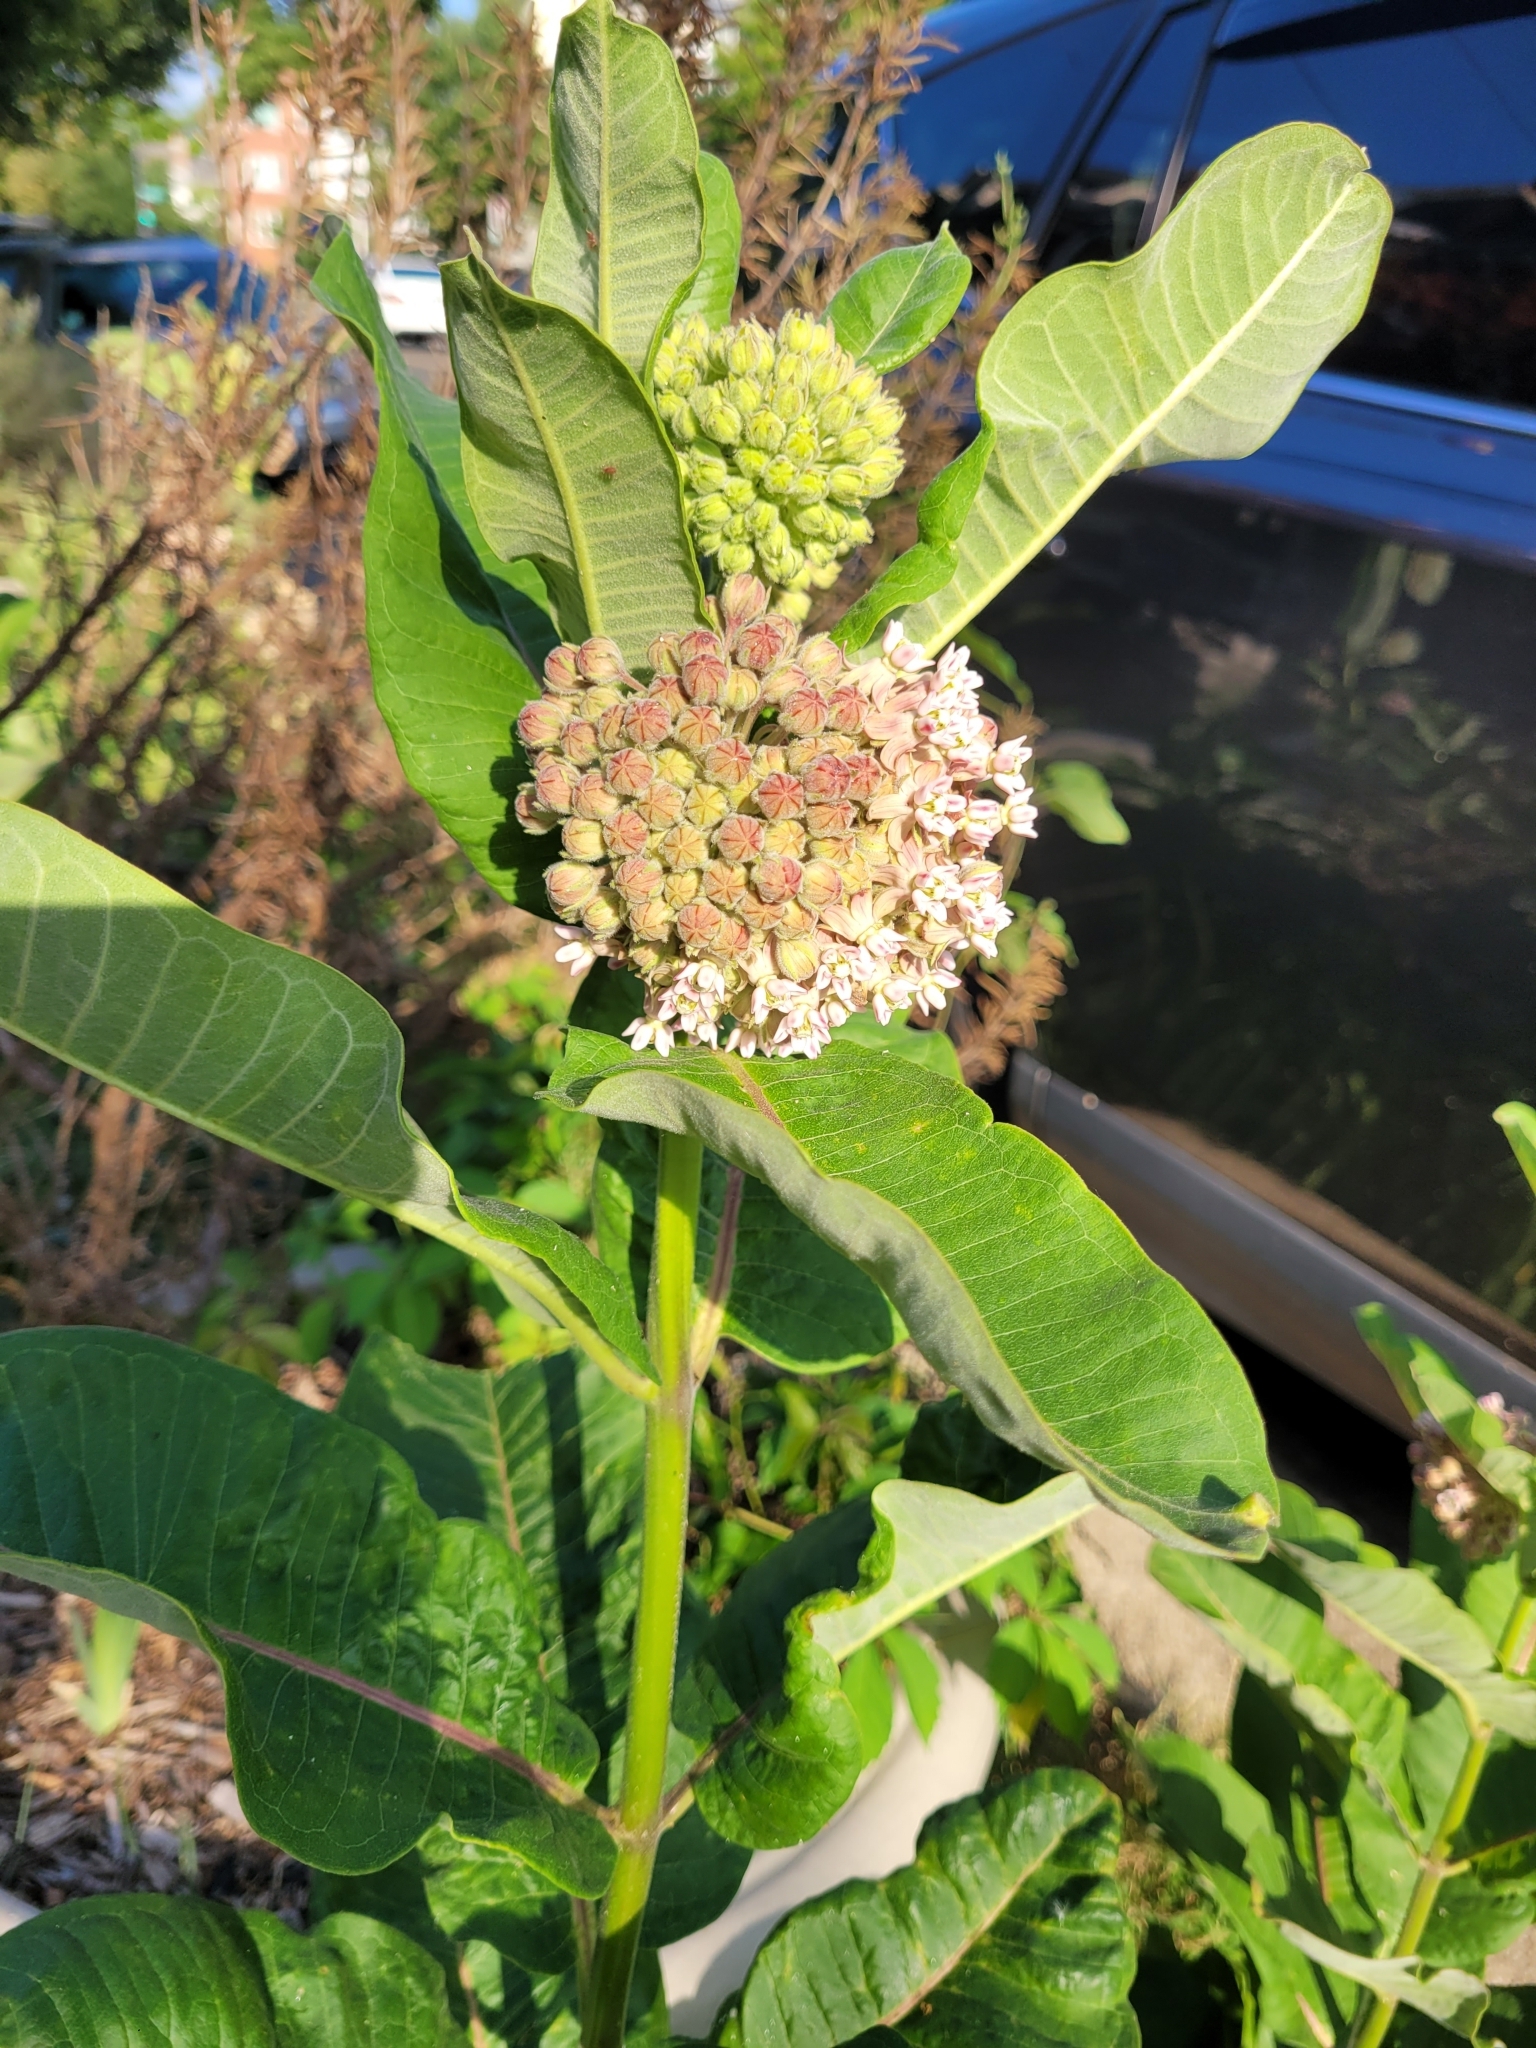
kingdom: Plantae
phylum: Tracheophyta
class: Magnoliopsida
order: Gentianales
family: Apocynaceae
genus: Asclepias
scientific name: Asclepias syriaca
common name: Common milkweed
